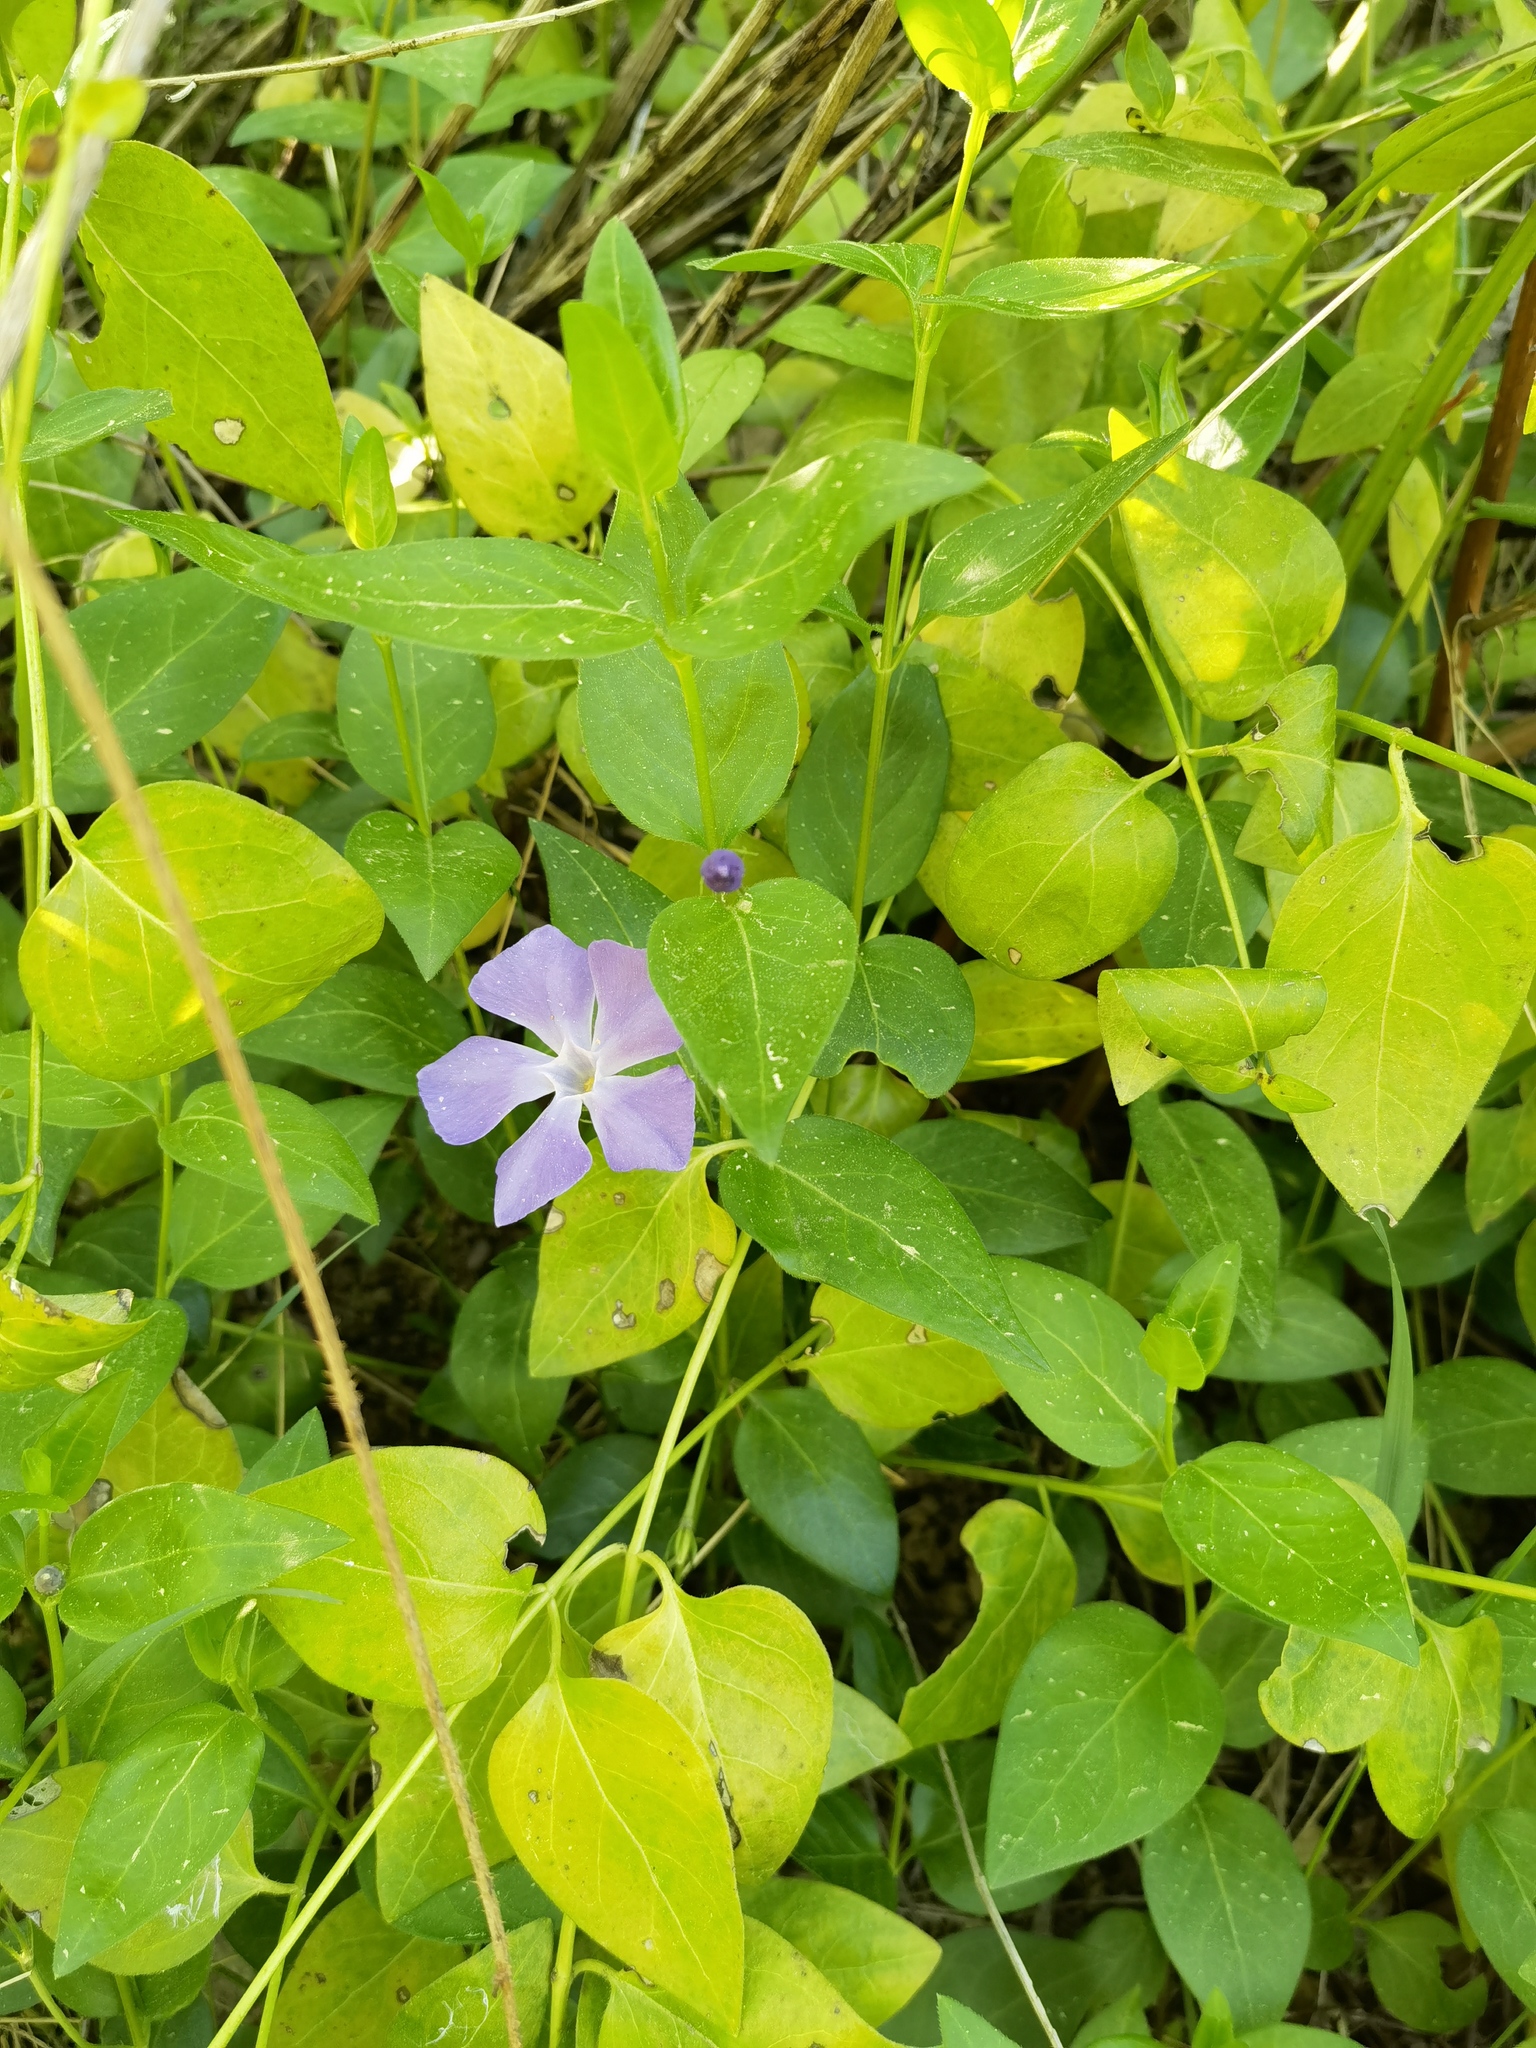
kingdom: Plantae
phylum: Tracheophyta
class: Magnoliopsida
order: Gentianales
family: Apocynaceae
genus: Vinca
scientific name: Vinca major
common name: Greater periwinkle
